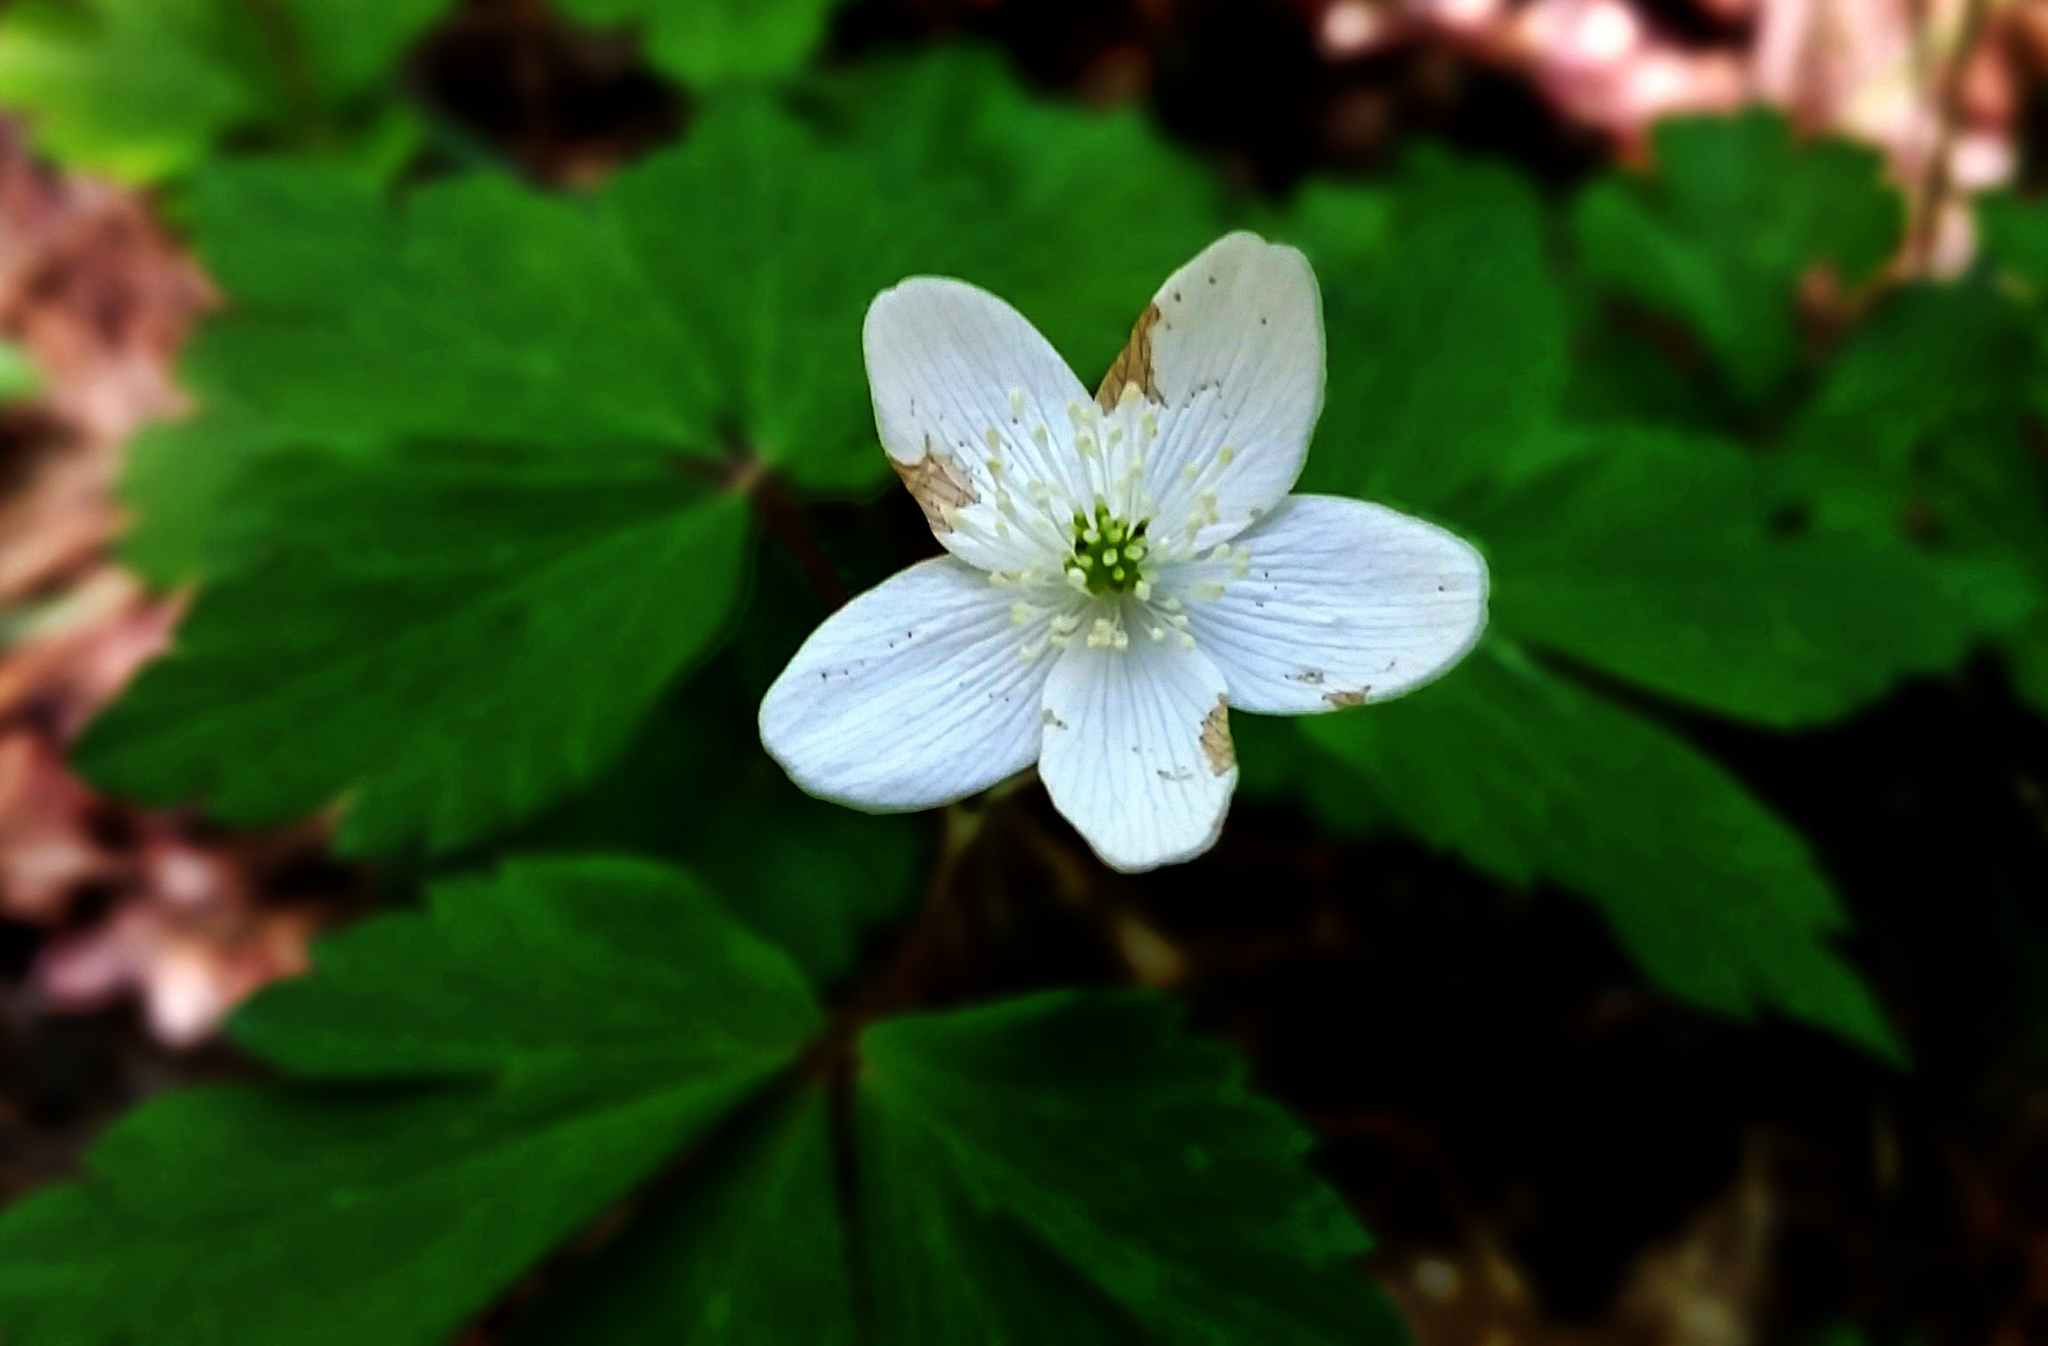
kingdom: Plantae
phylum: Tracheophyta
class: Magnoliopsida
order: Ranunculales
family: Ranunculaceae
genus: Anemone
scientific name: Anemone quinquefolia
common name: Wood anemone
